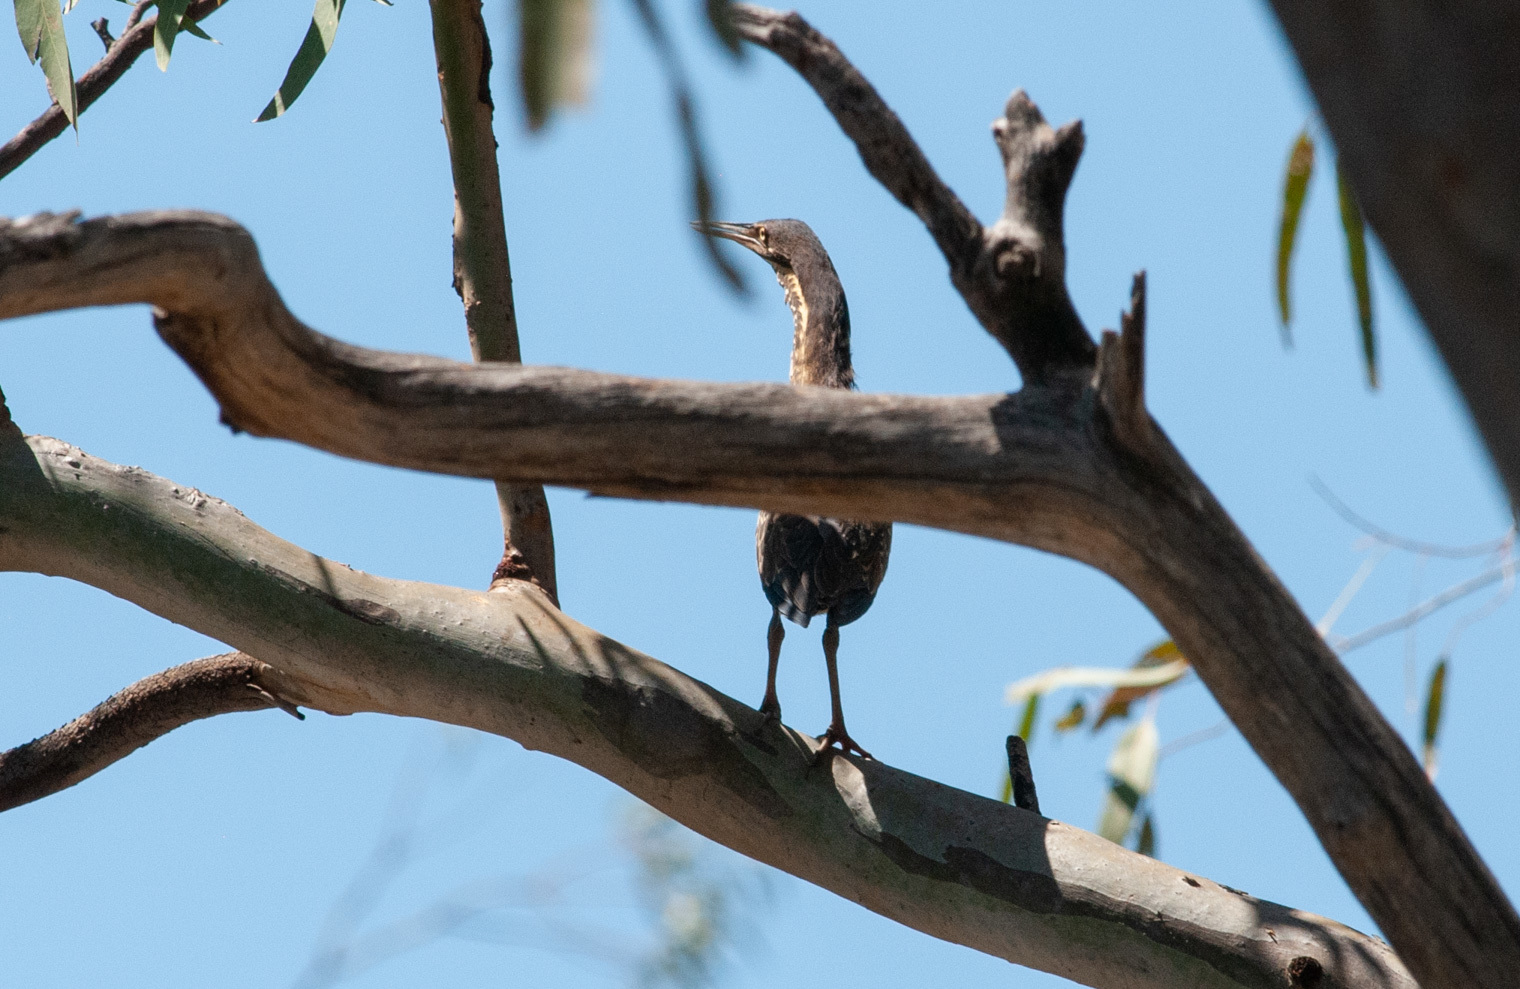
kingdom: Animalia
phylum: Chordata
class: Aves
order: Pelecaniformes
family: Ardeidae
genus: Dupetor
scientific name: Dupetor flavicollis
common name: Black bittern
